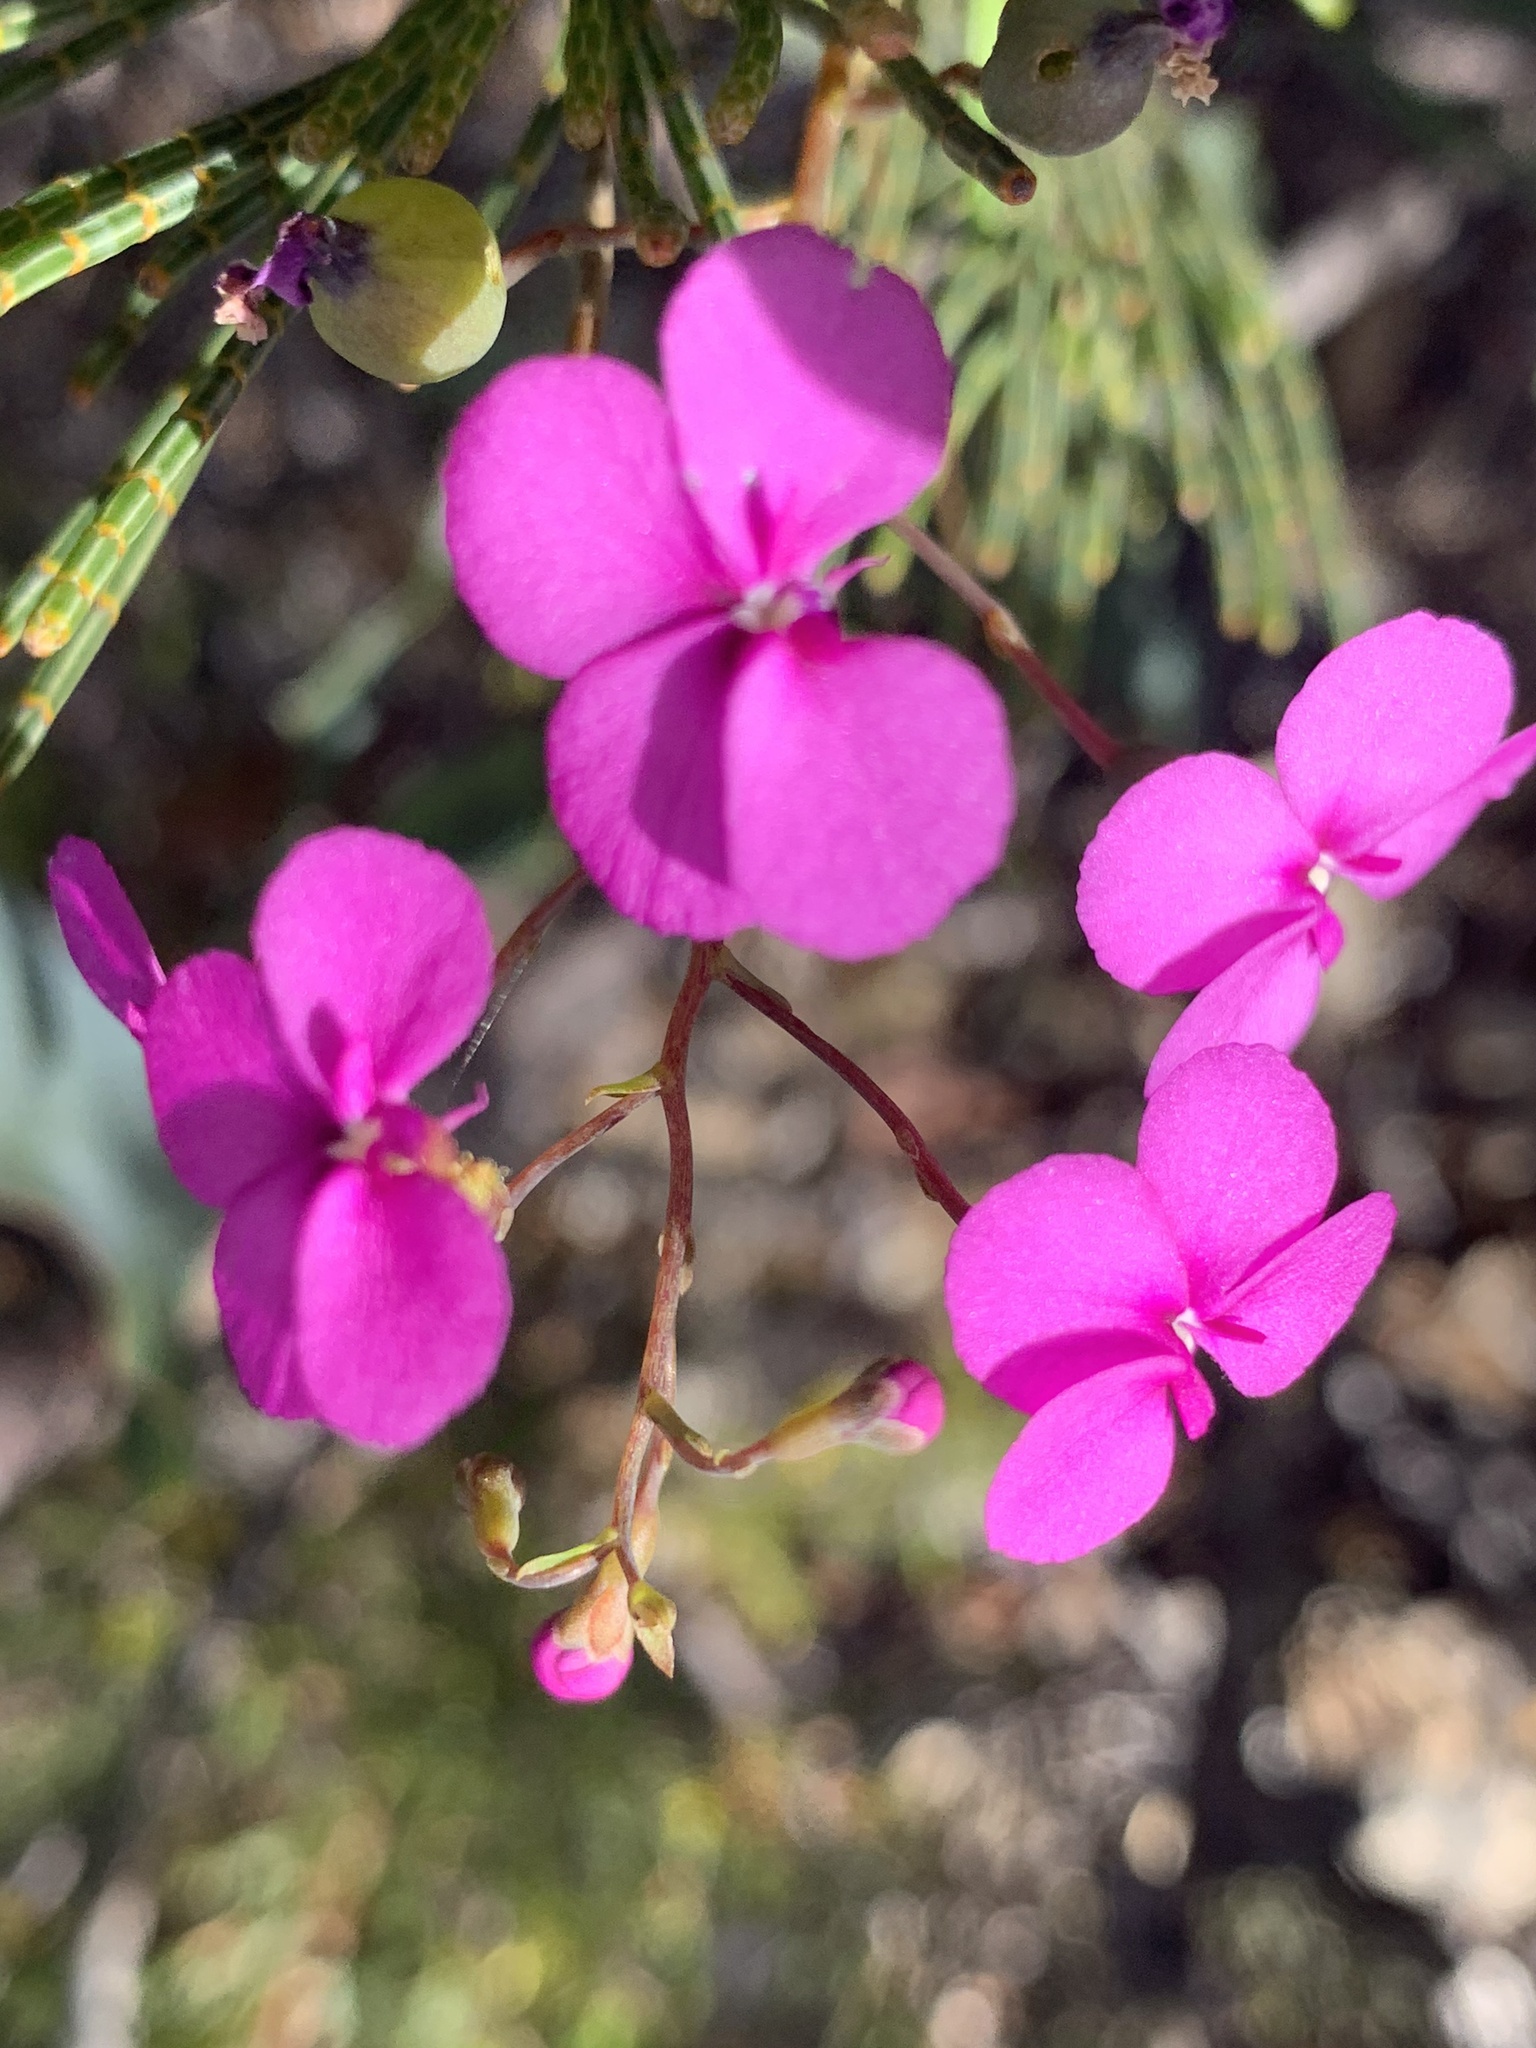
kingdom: Plantae
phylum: Tracheophyta
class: Magnoliopsida
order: Asterales
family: Stylidiaceae
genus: Stylidium
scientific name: Stylidium scandens
